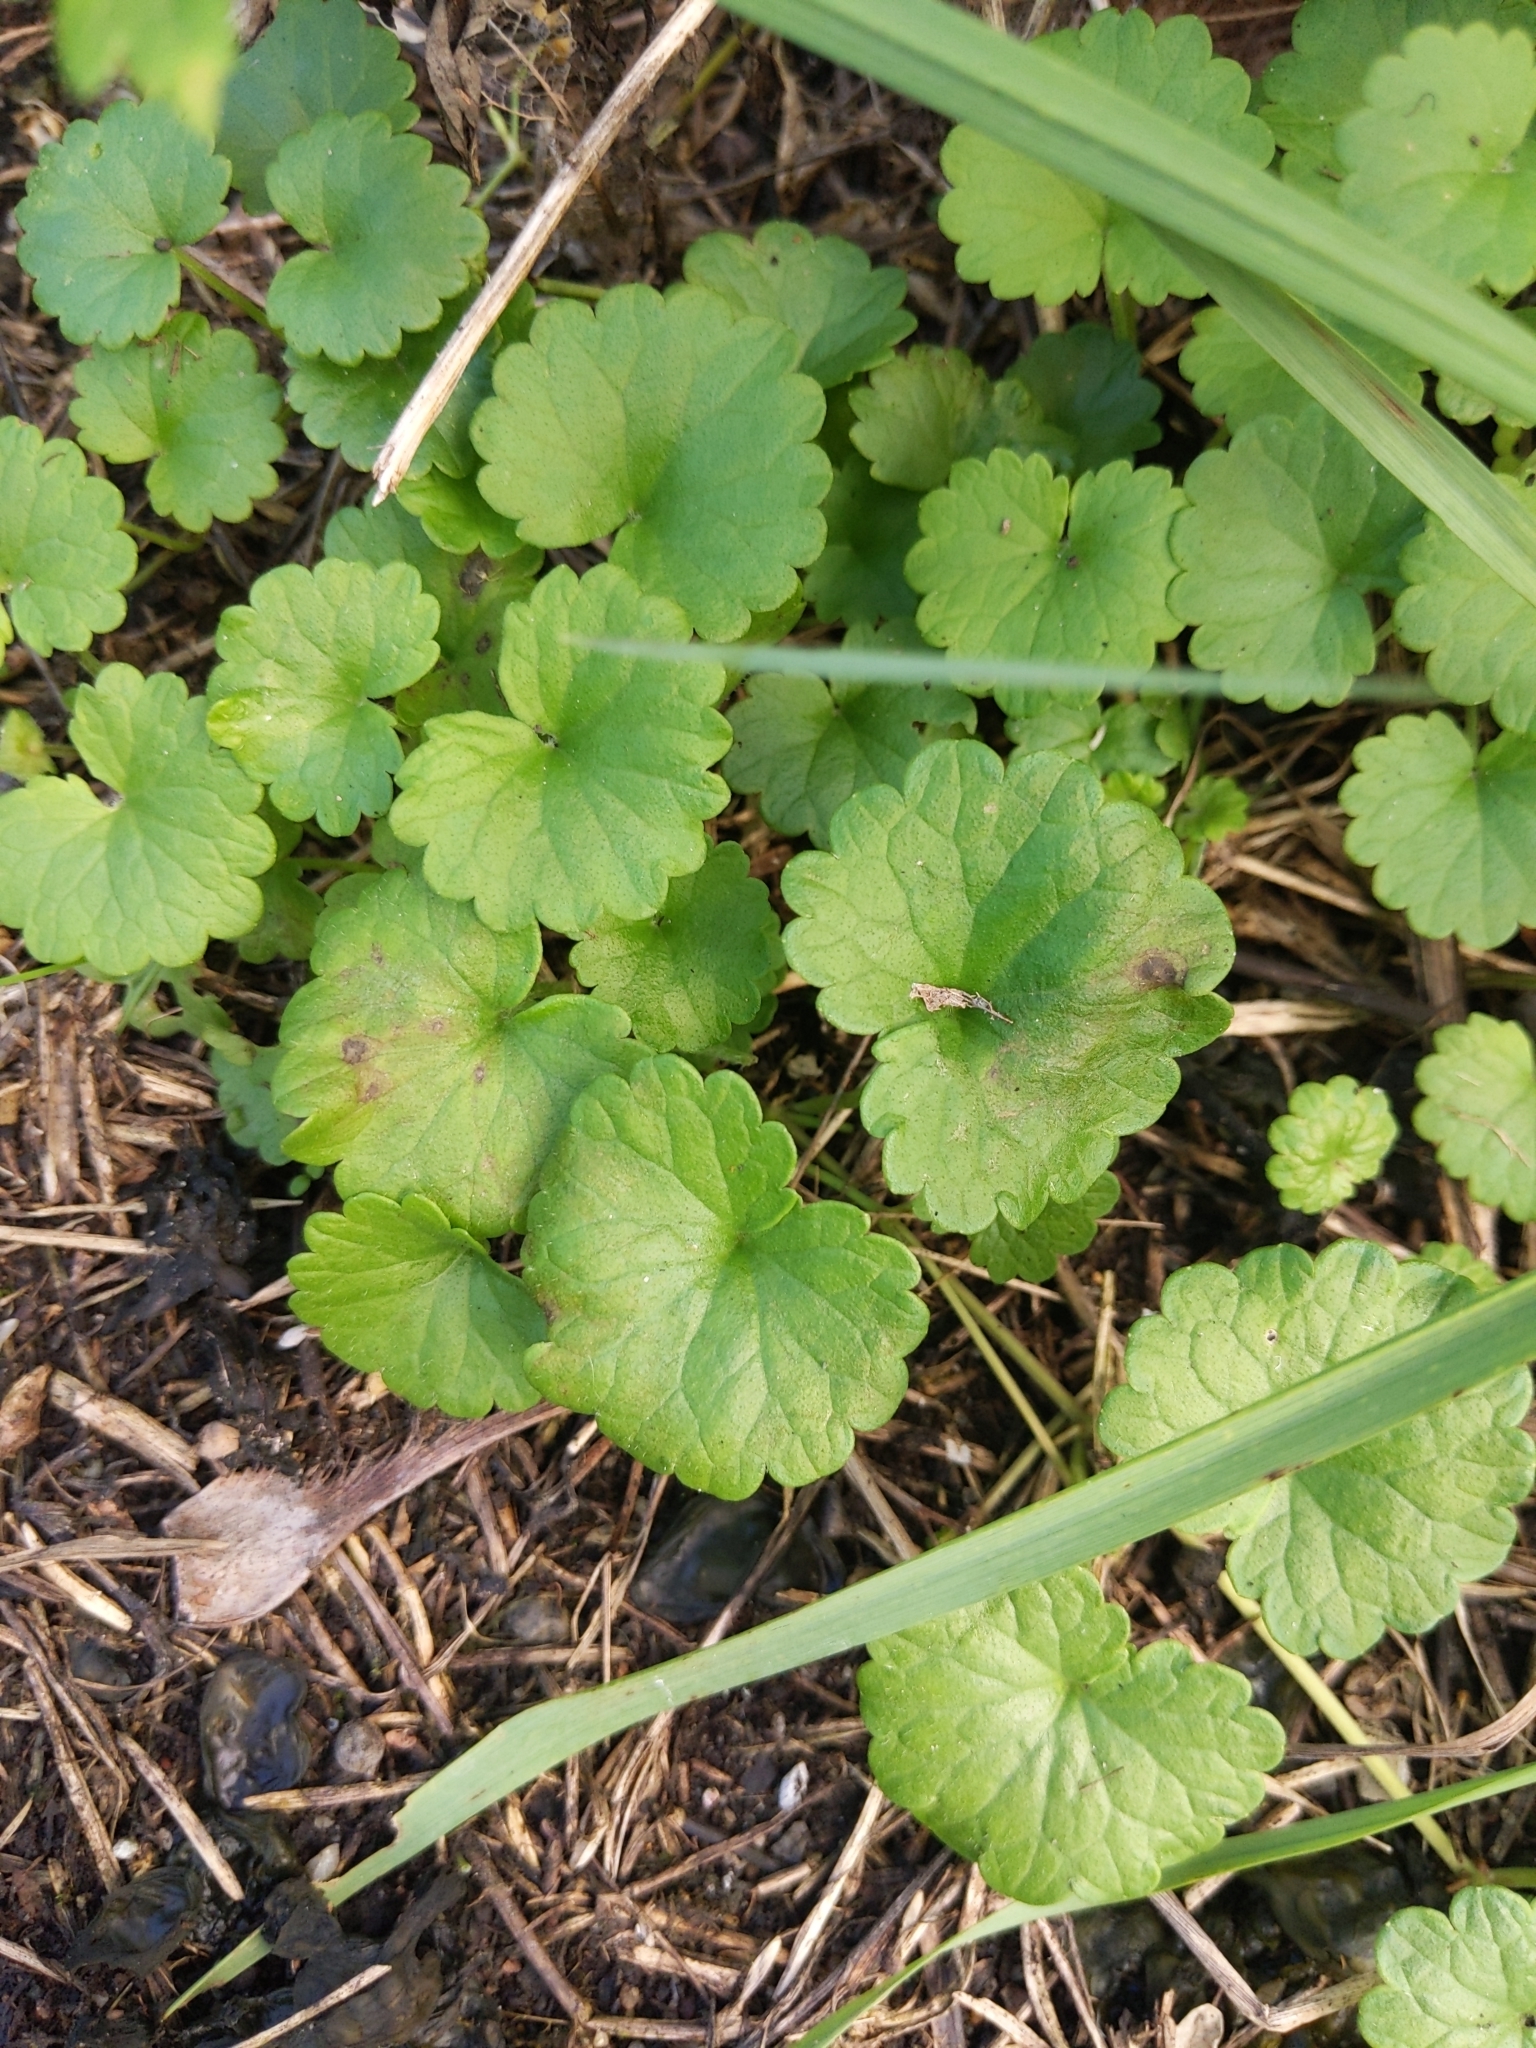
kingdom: Plantae
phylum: Tracheophyta
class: Magnoliopsida
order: Lamiales
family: Lamiaceae
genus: Glechoma
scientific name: Glechoma hederacea
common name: Ground ivy
